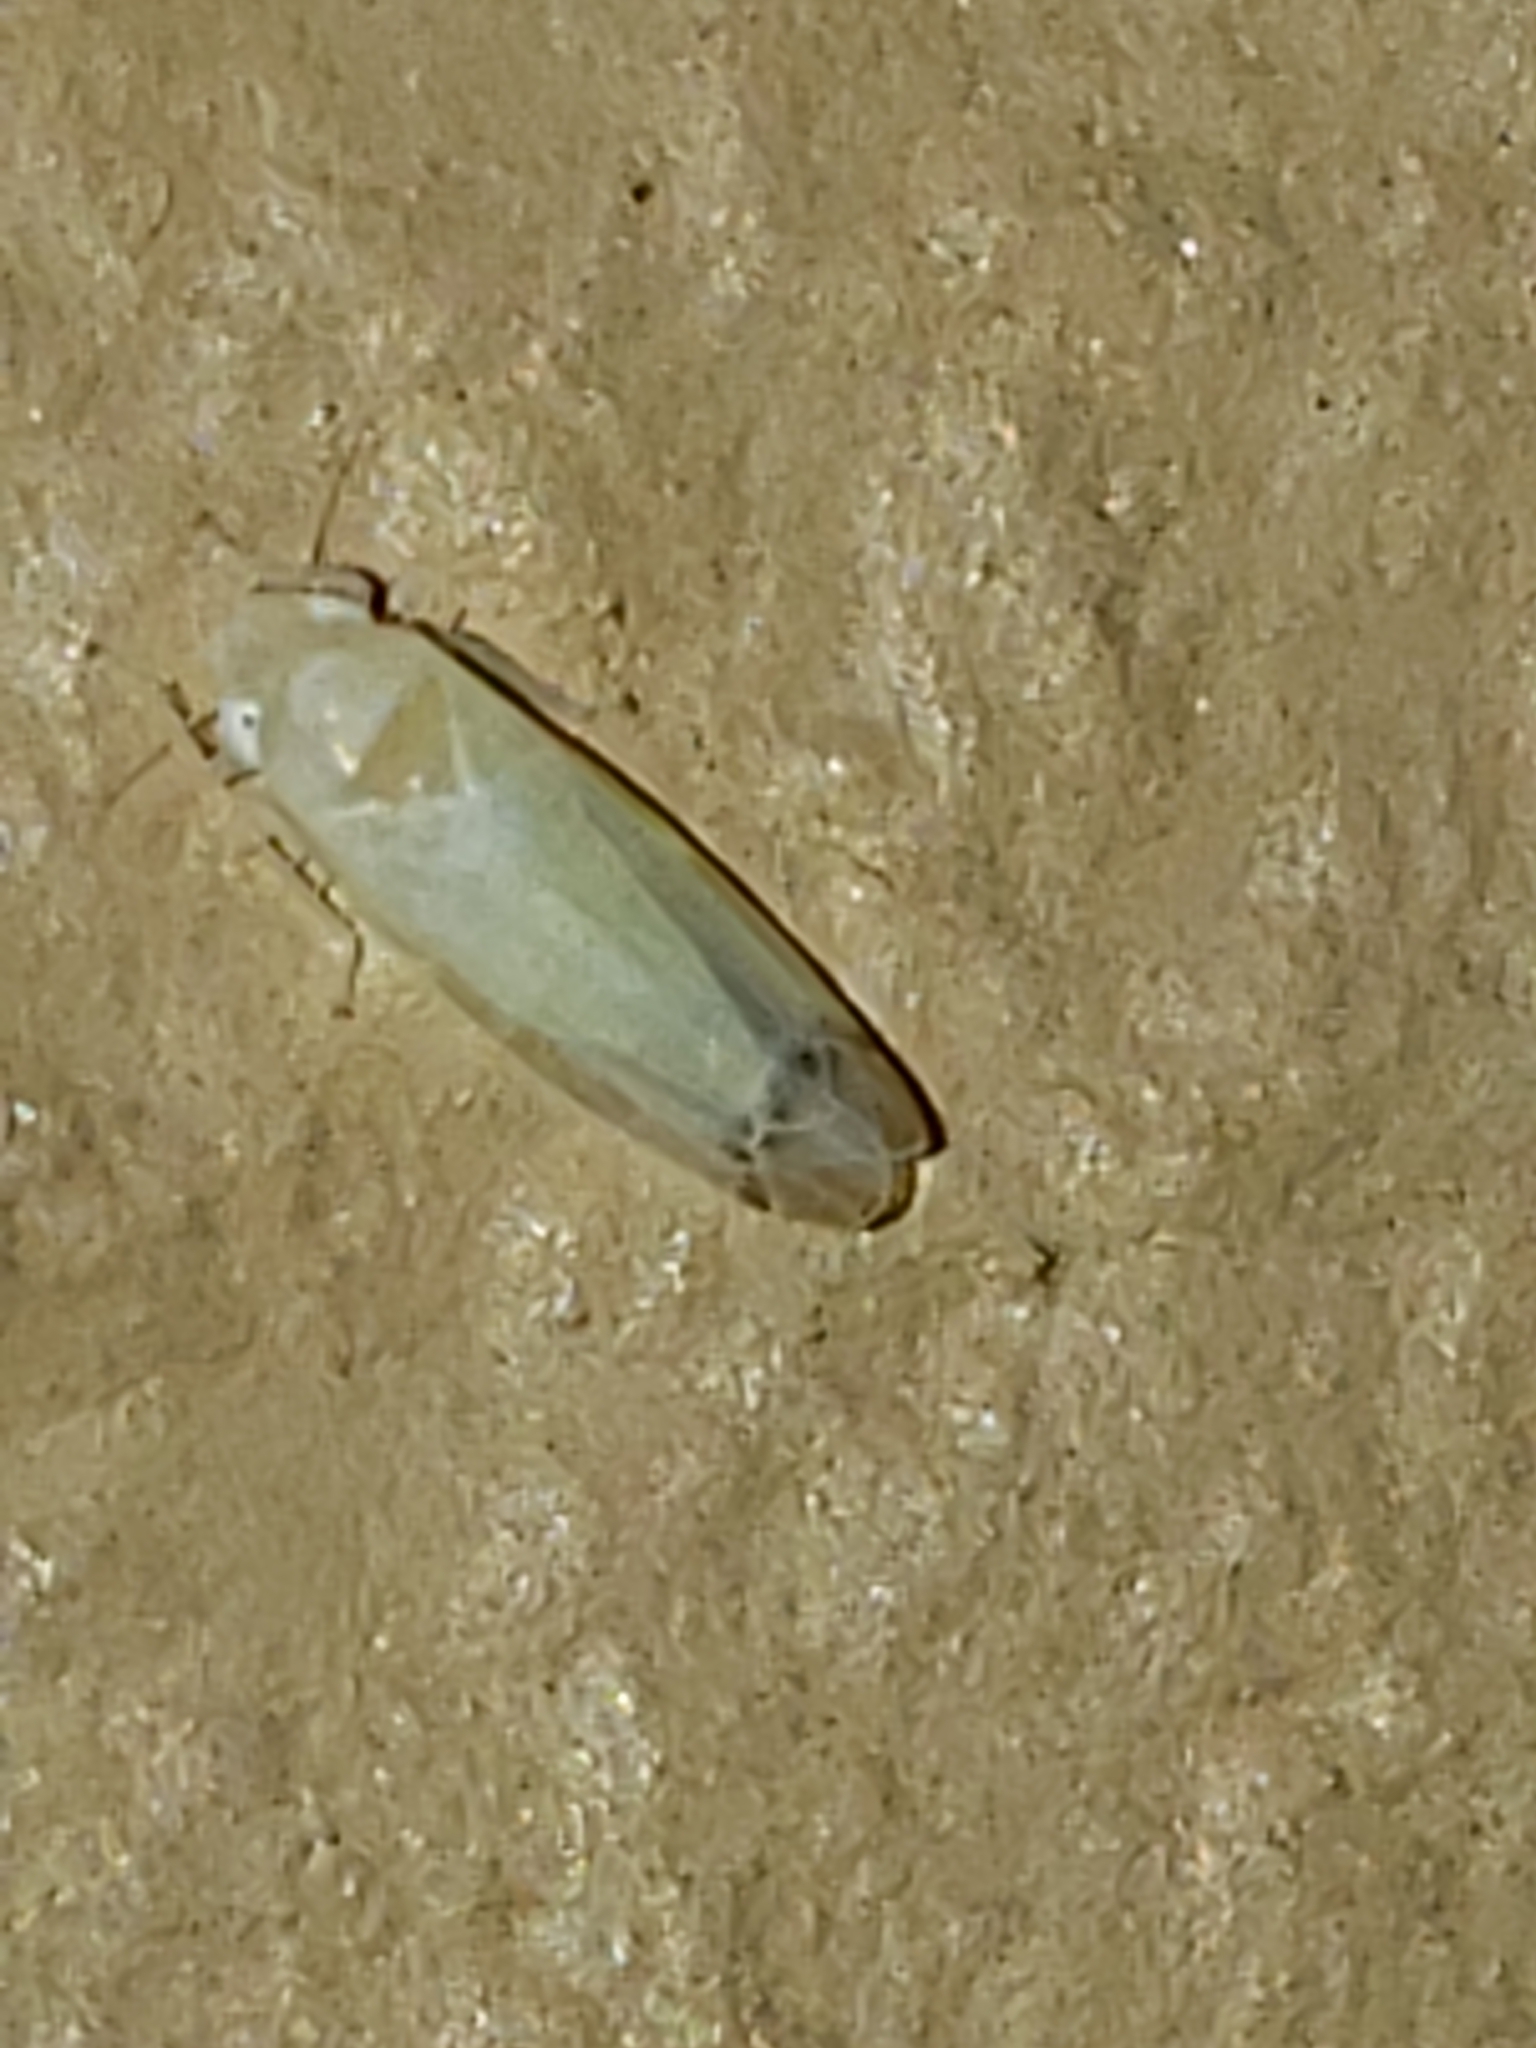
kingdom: Animalia
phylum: Arthropoda
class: Insecta
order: Hemiptera
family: Cicadellidae
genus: Empoa
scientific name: Empoa saffrana
